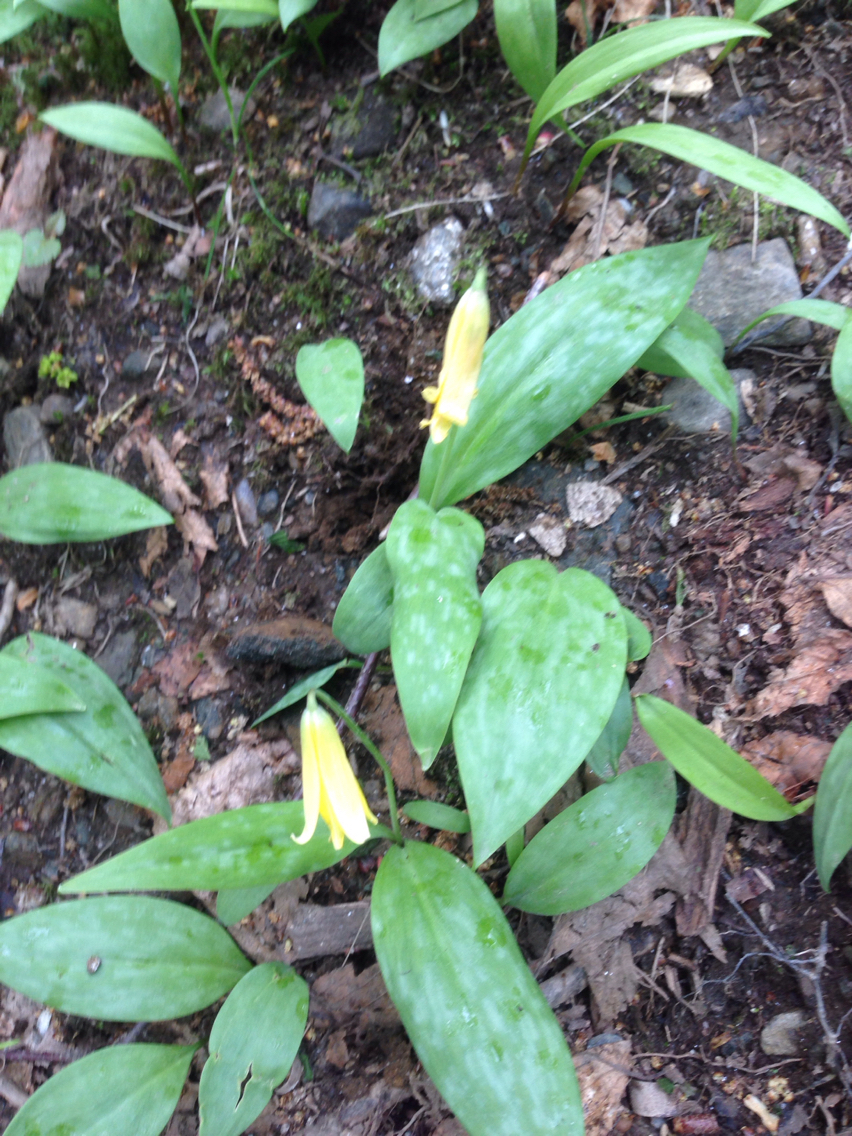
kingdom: Plantae
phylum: Tracheophyta
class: Liliopsida
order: Liliales
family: Liliaceae
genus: Erythronium
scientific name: Erythronium americanum
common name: Yellow adder's-tongue
